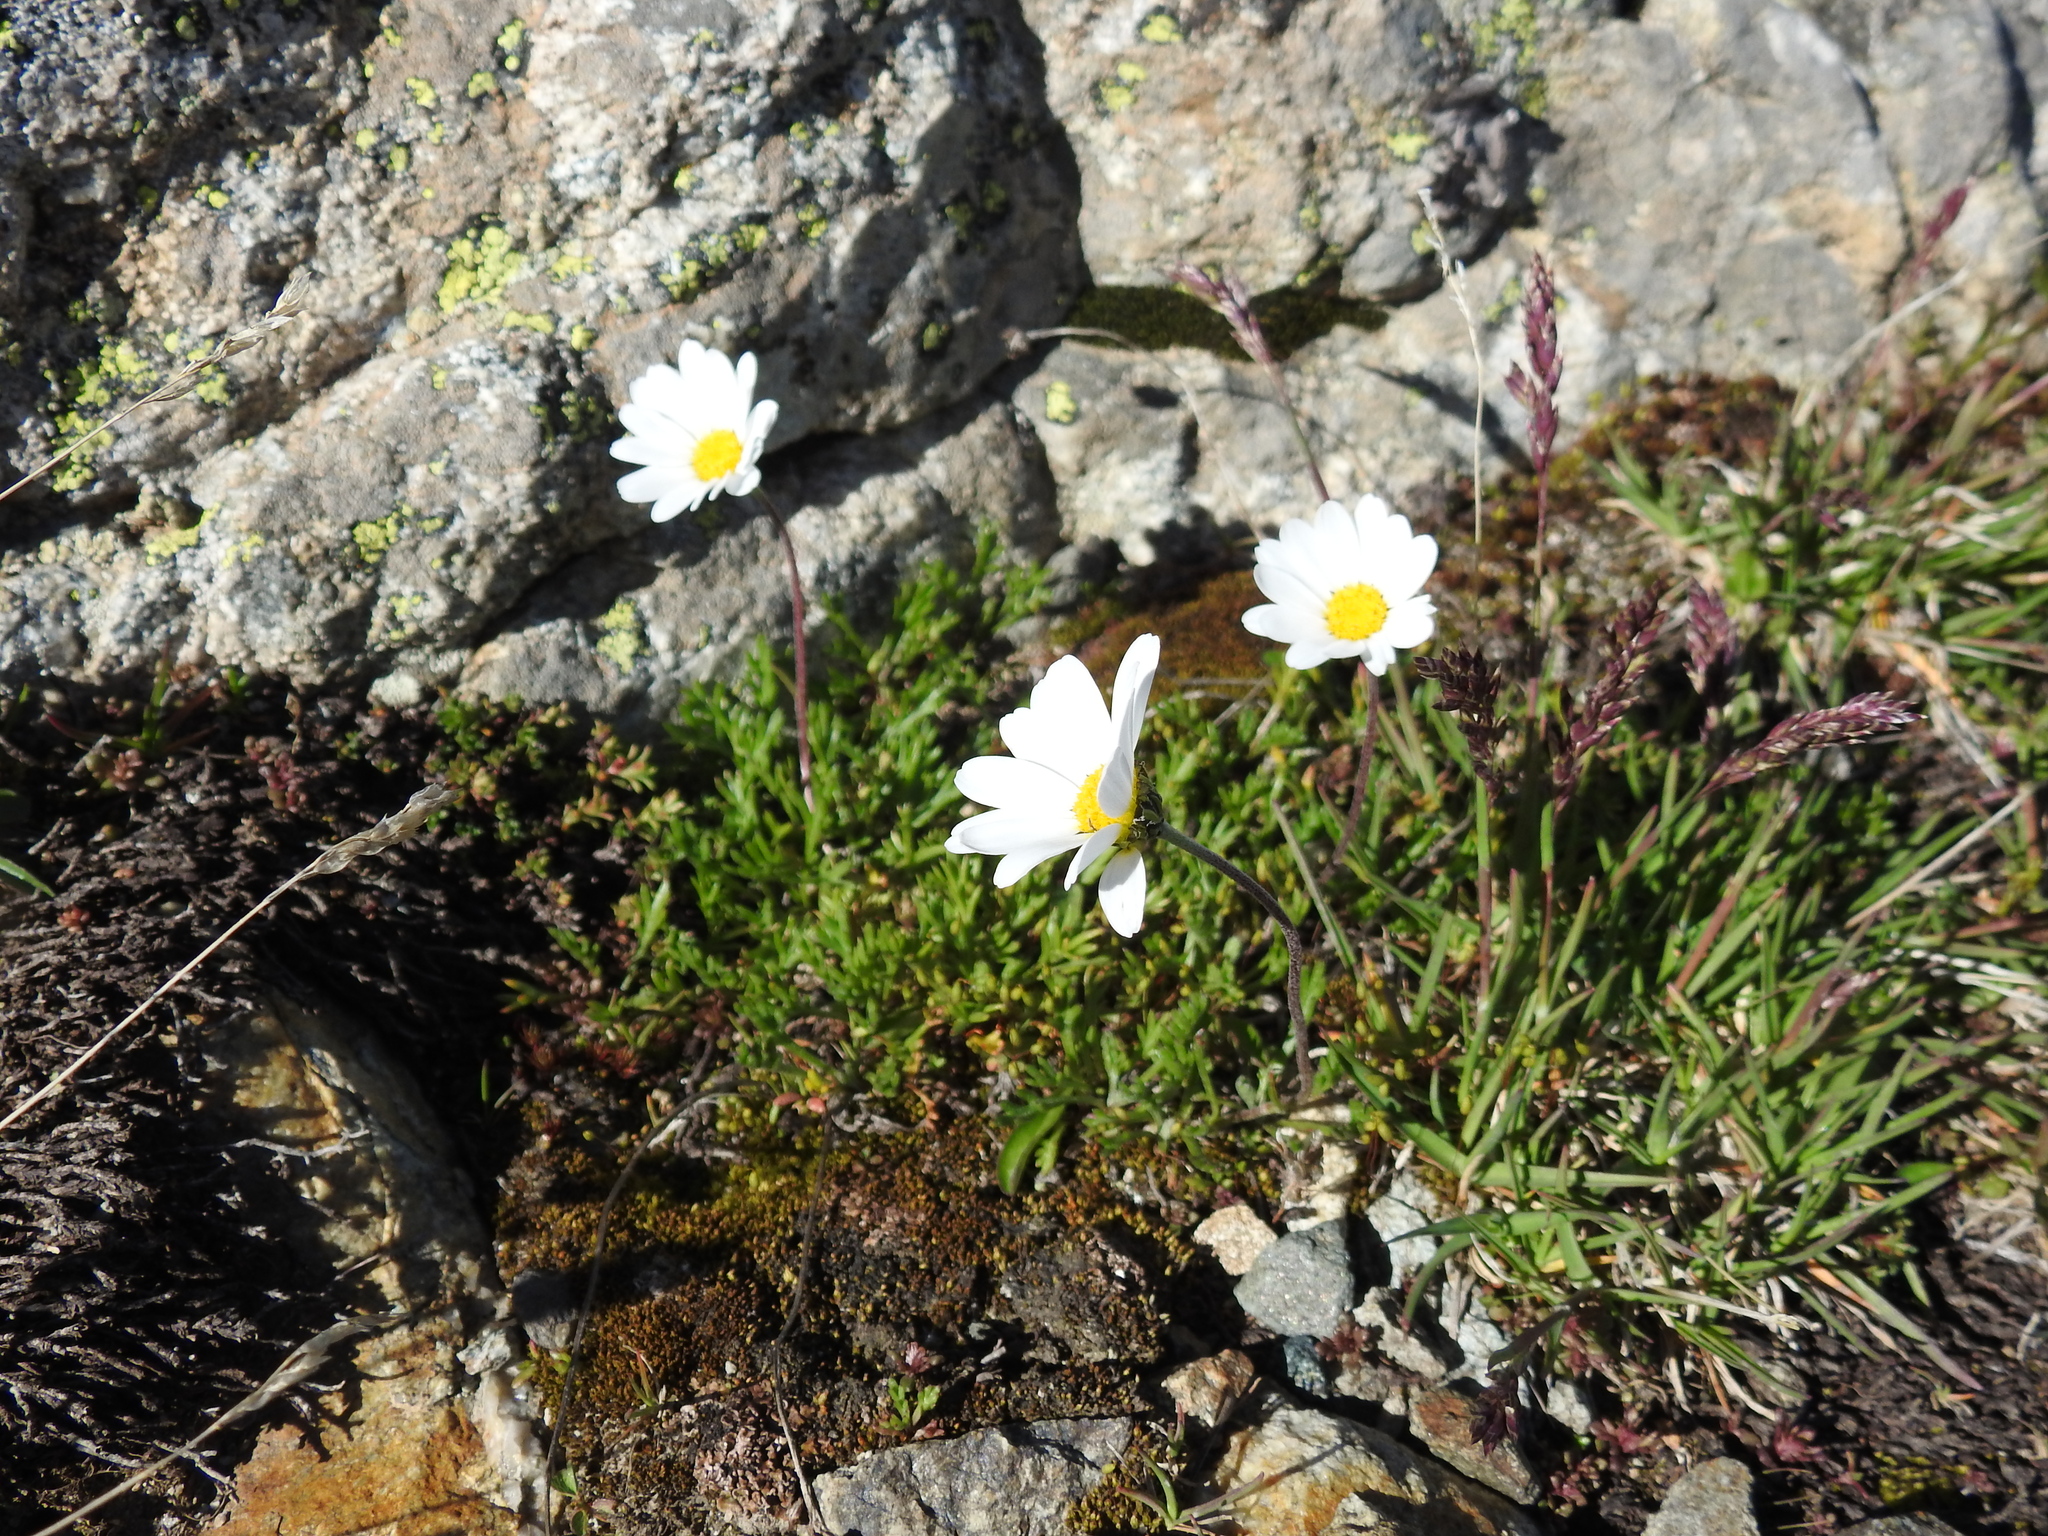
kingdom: Plantae
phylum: Tracheophyta
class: Magnoliopsida
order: Asterales
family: Asteraceae
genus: Leucanthemopsis
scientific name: Leucanthemopsis alpina
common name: Alpine moon daisy
